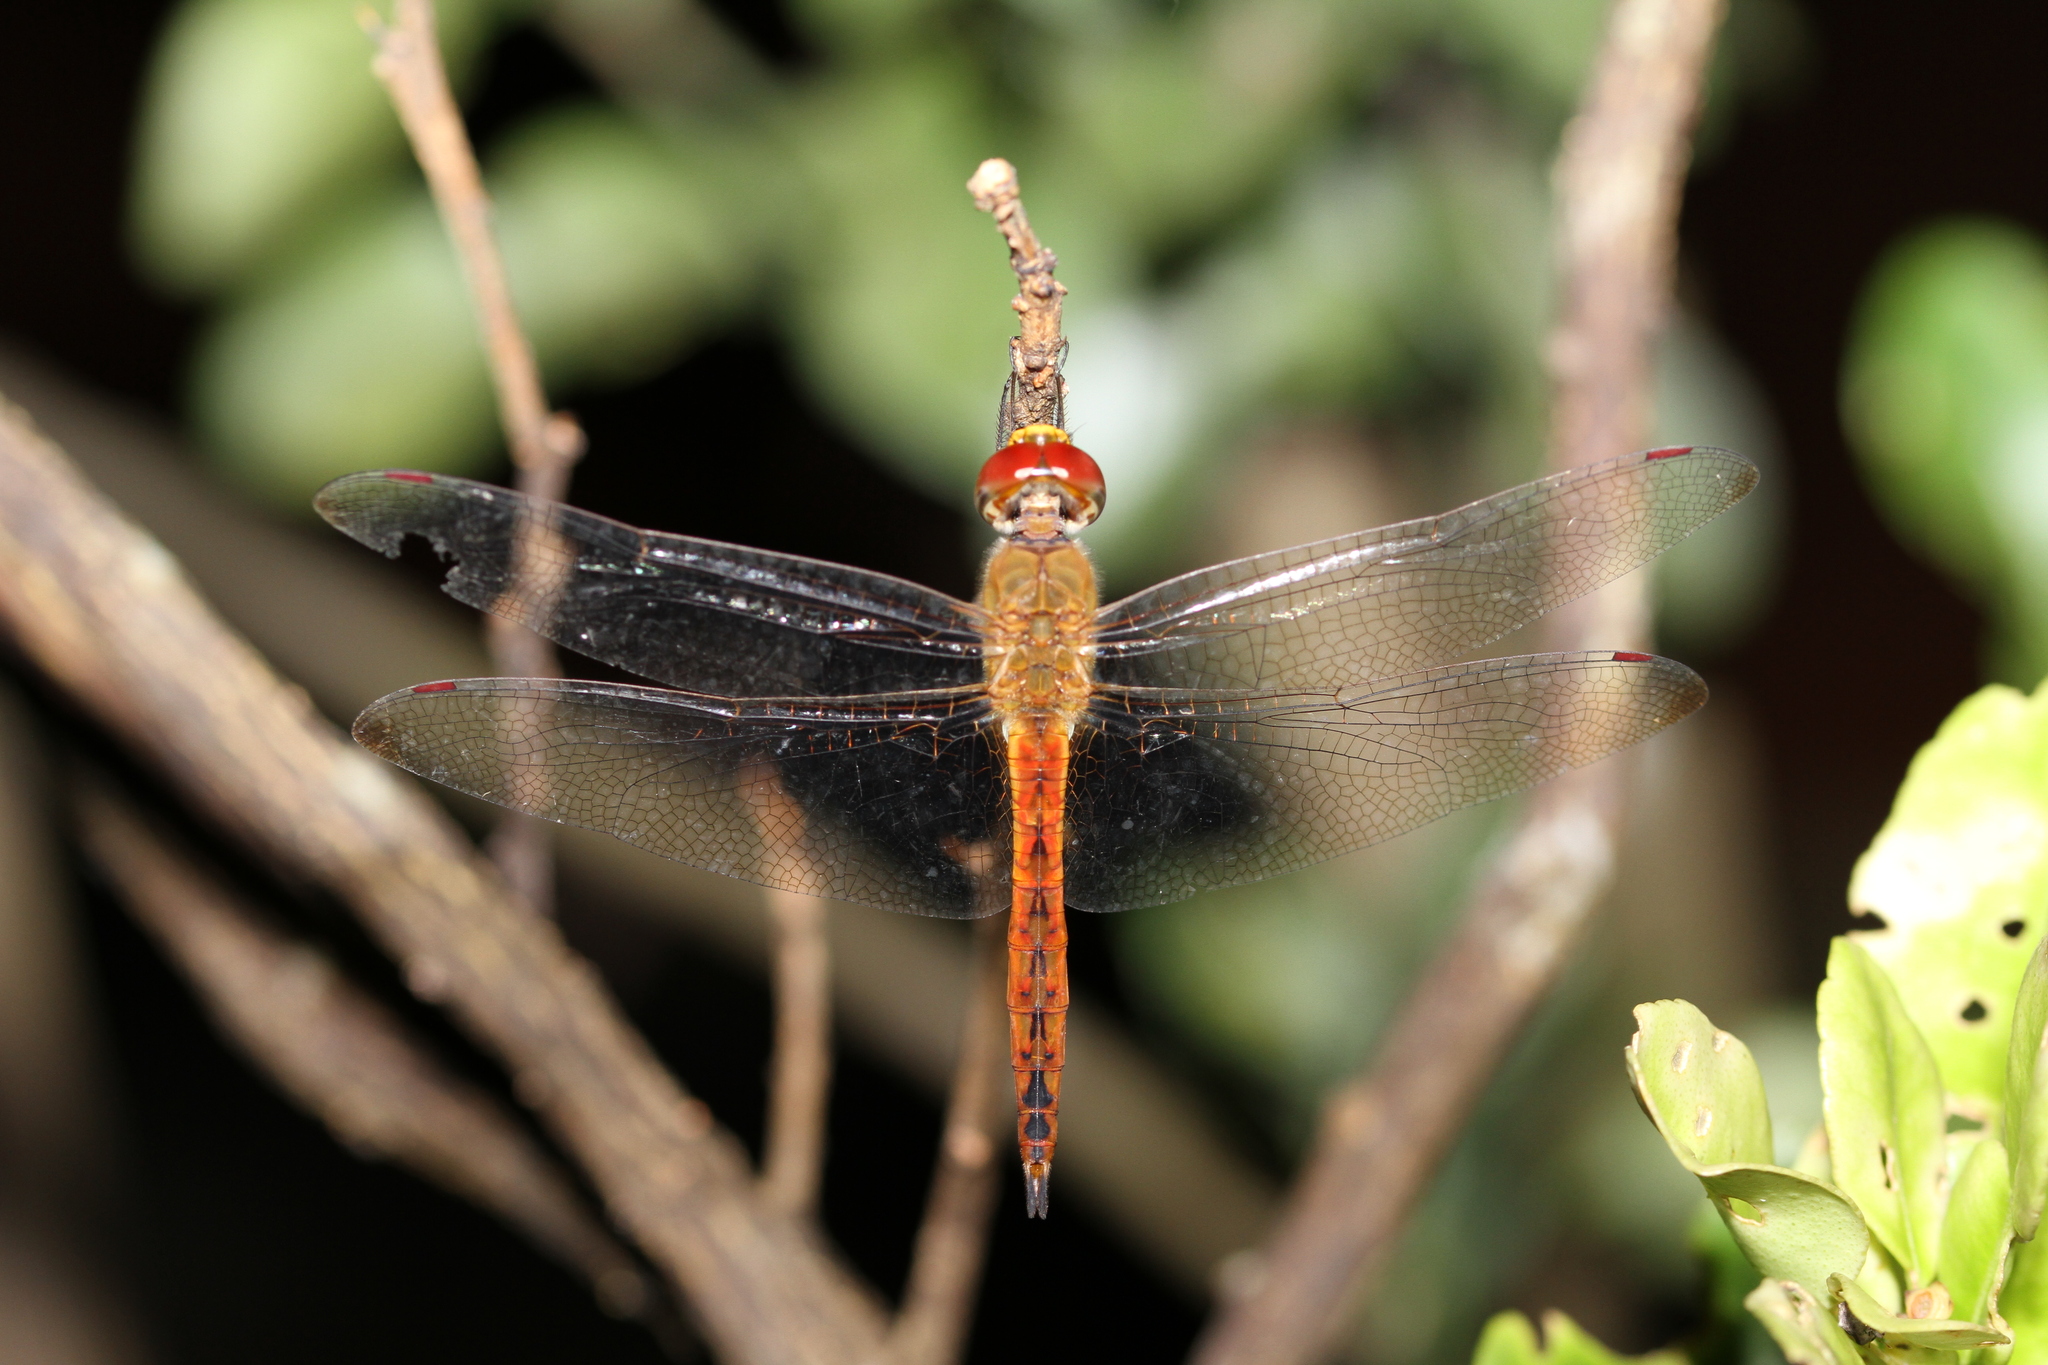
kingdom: Animalia
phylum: Arthropoda
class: Insecta
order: Odonata
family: Libellulidae
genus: Pantala
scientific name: Pantala flavescens
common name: Wandering glider
